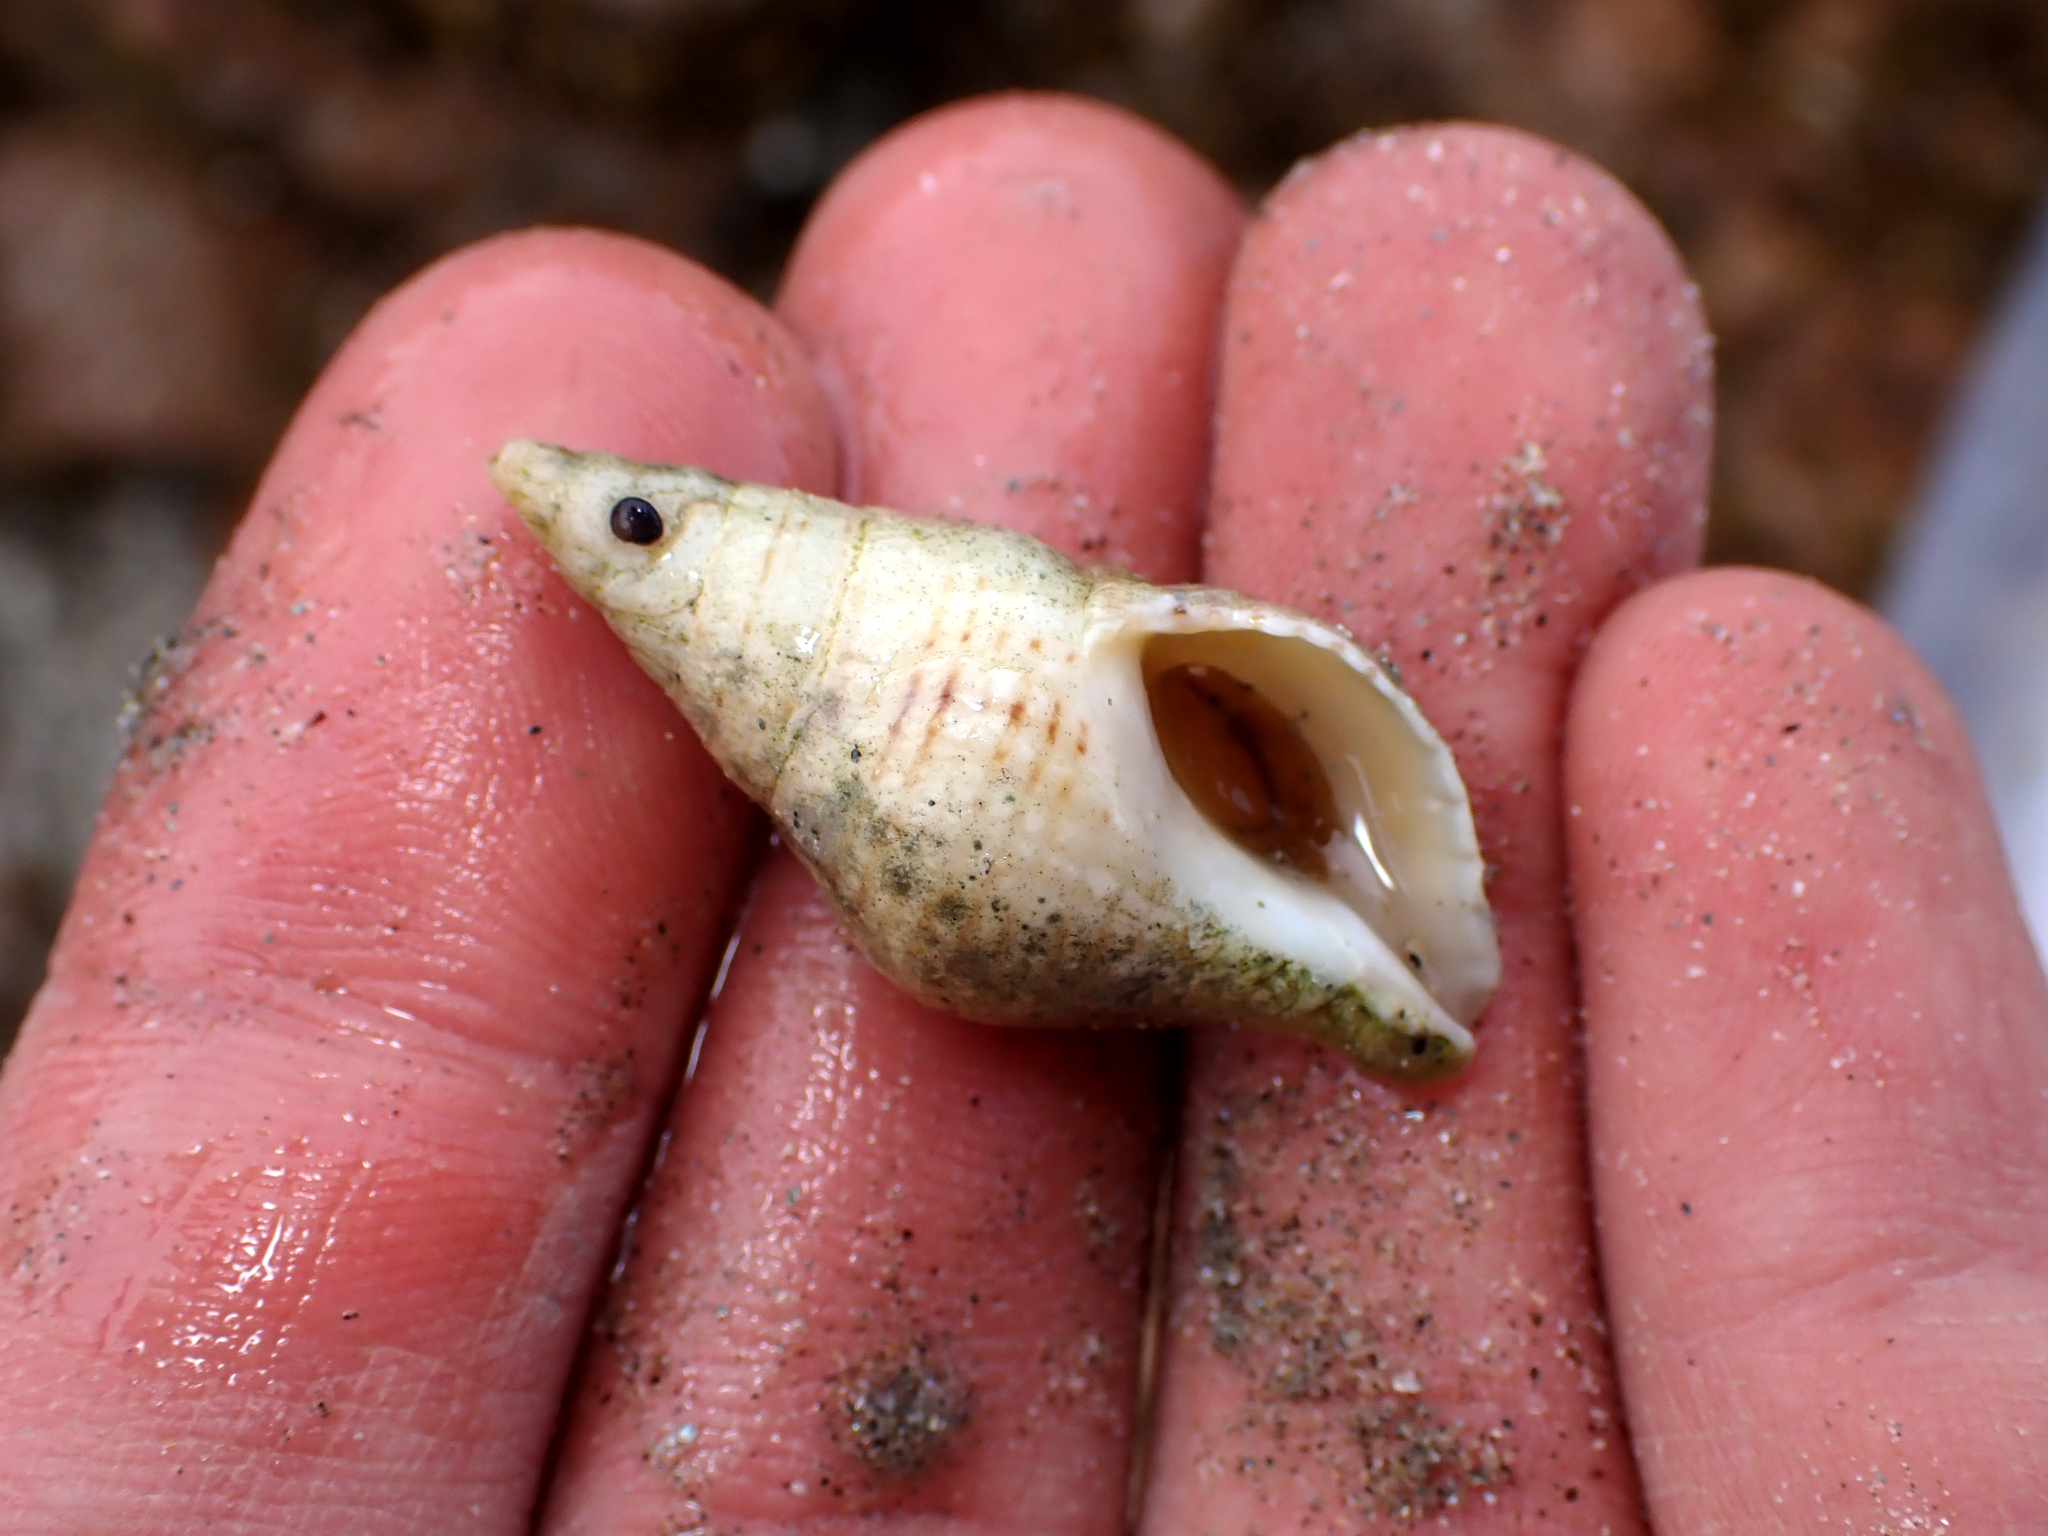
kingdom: Animalia
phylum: Mollusca
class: Gastropoda
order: Neogastropoda
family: Tudiclidae
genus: Buccinulum
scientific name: Buccinulum littorinoides
